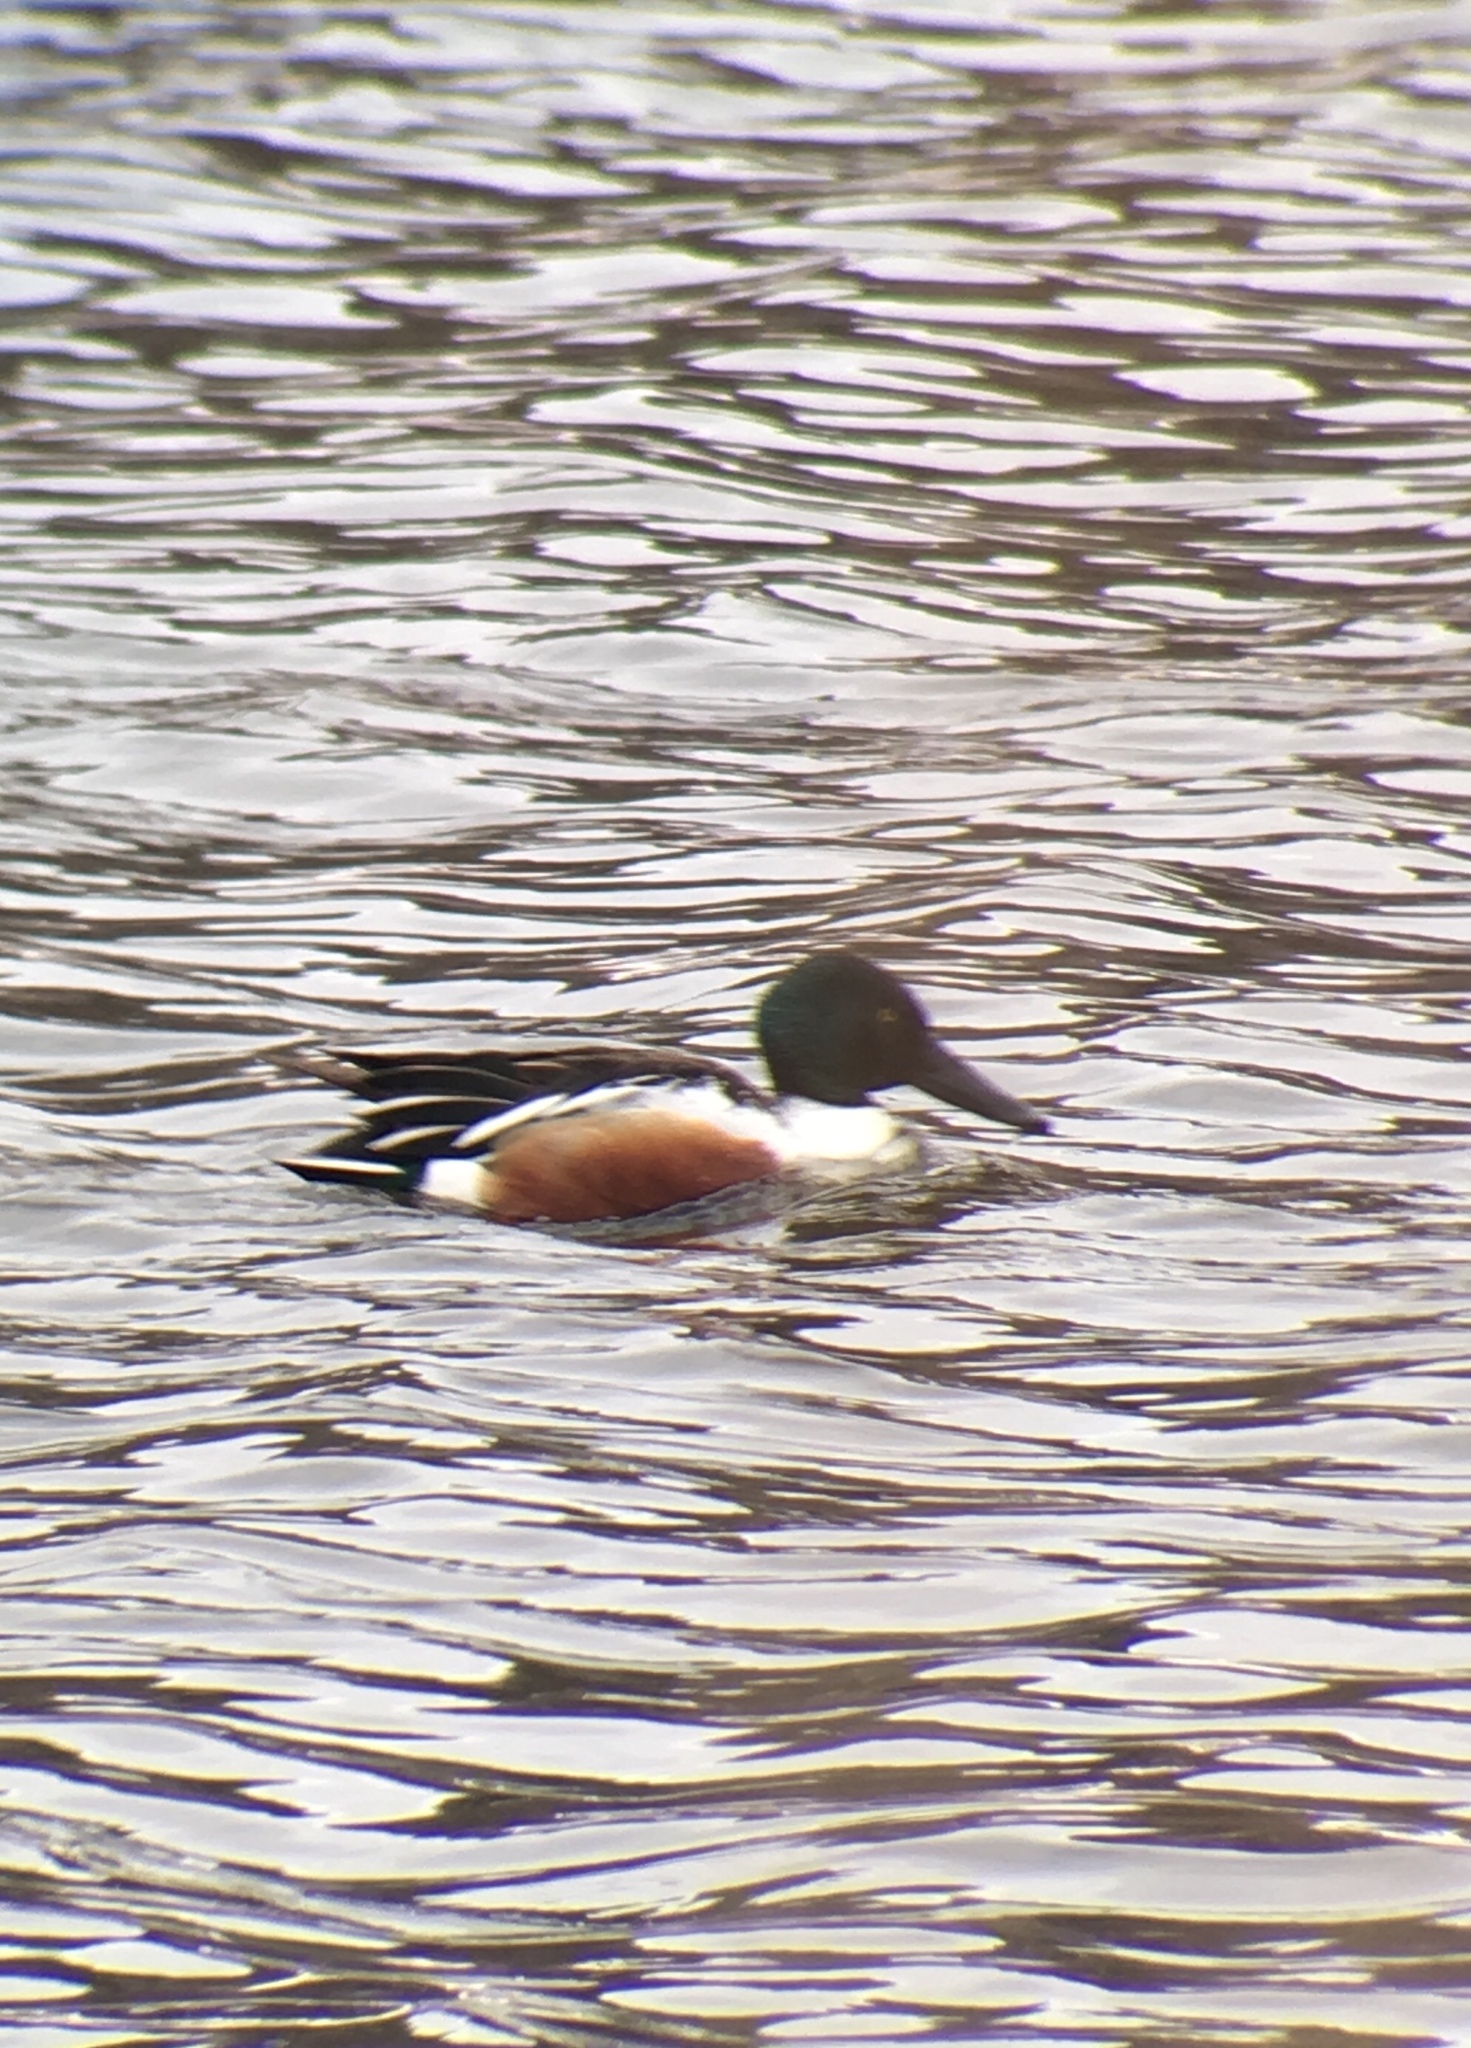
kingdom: Animalia
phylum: Chordata
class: Aves
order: Anseriformes
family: Anatidae
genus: Spatula
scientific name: Spatula clypeata
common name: Northern shoveler
